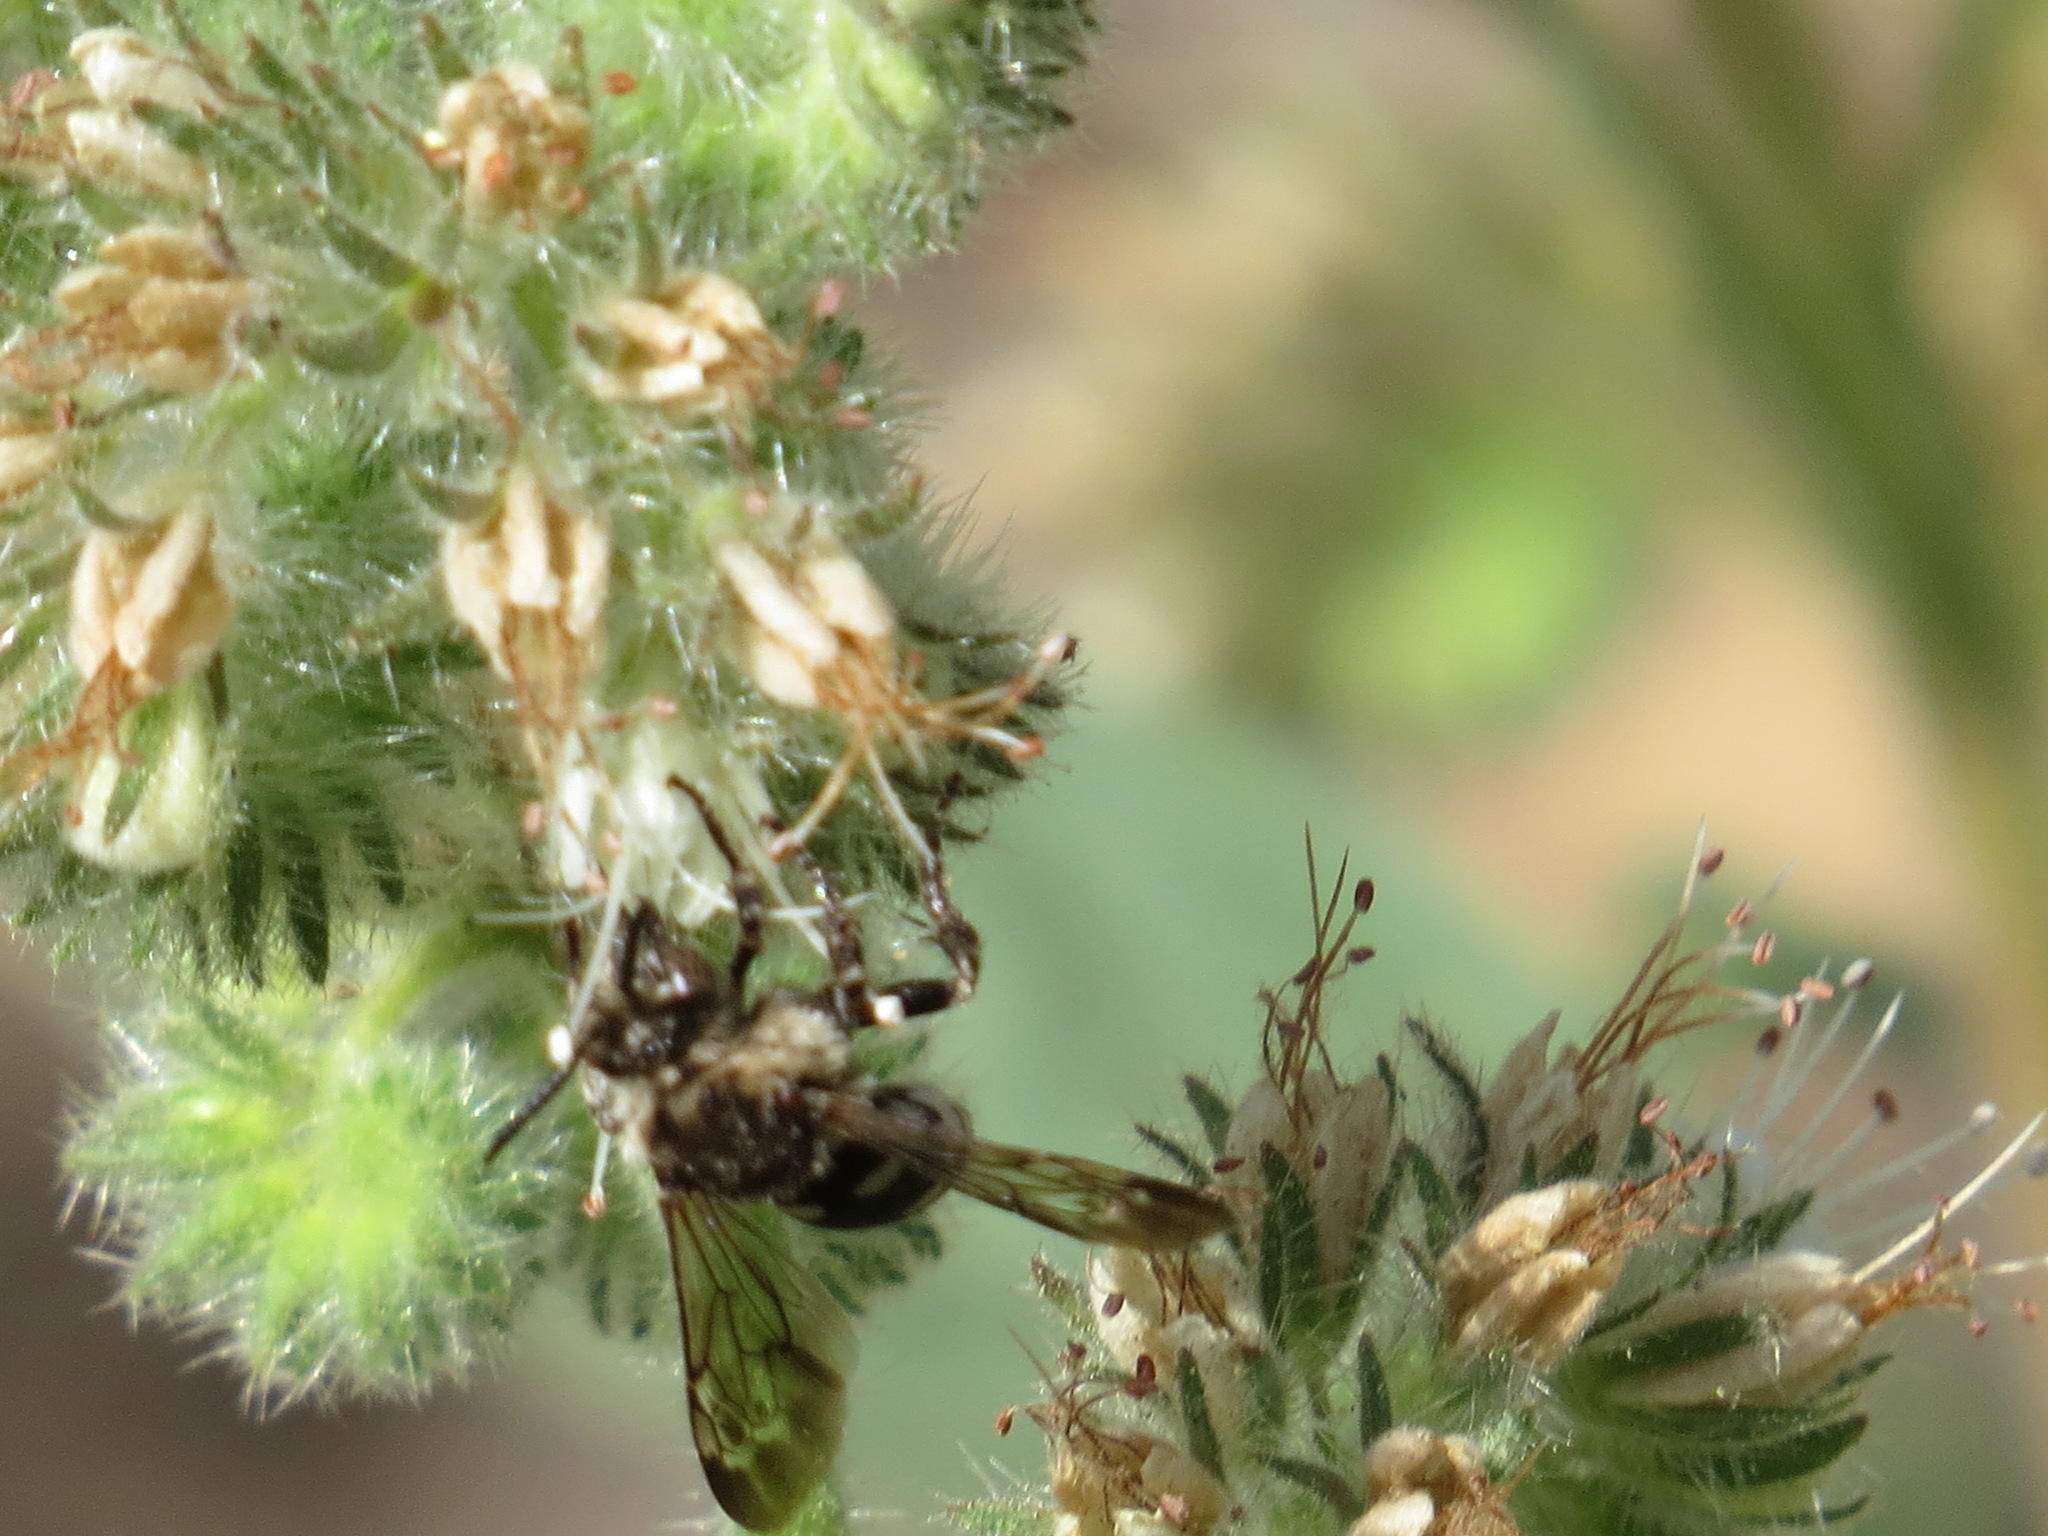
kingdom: Animalia
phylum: Arthropoda
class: Insecta
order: Hymenoptera
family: Apidae
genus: Brachymelecta
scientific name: Brachymelecta californica
